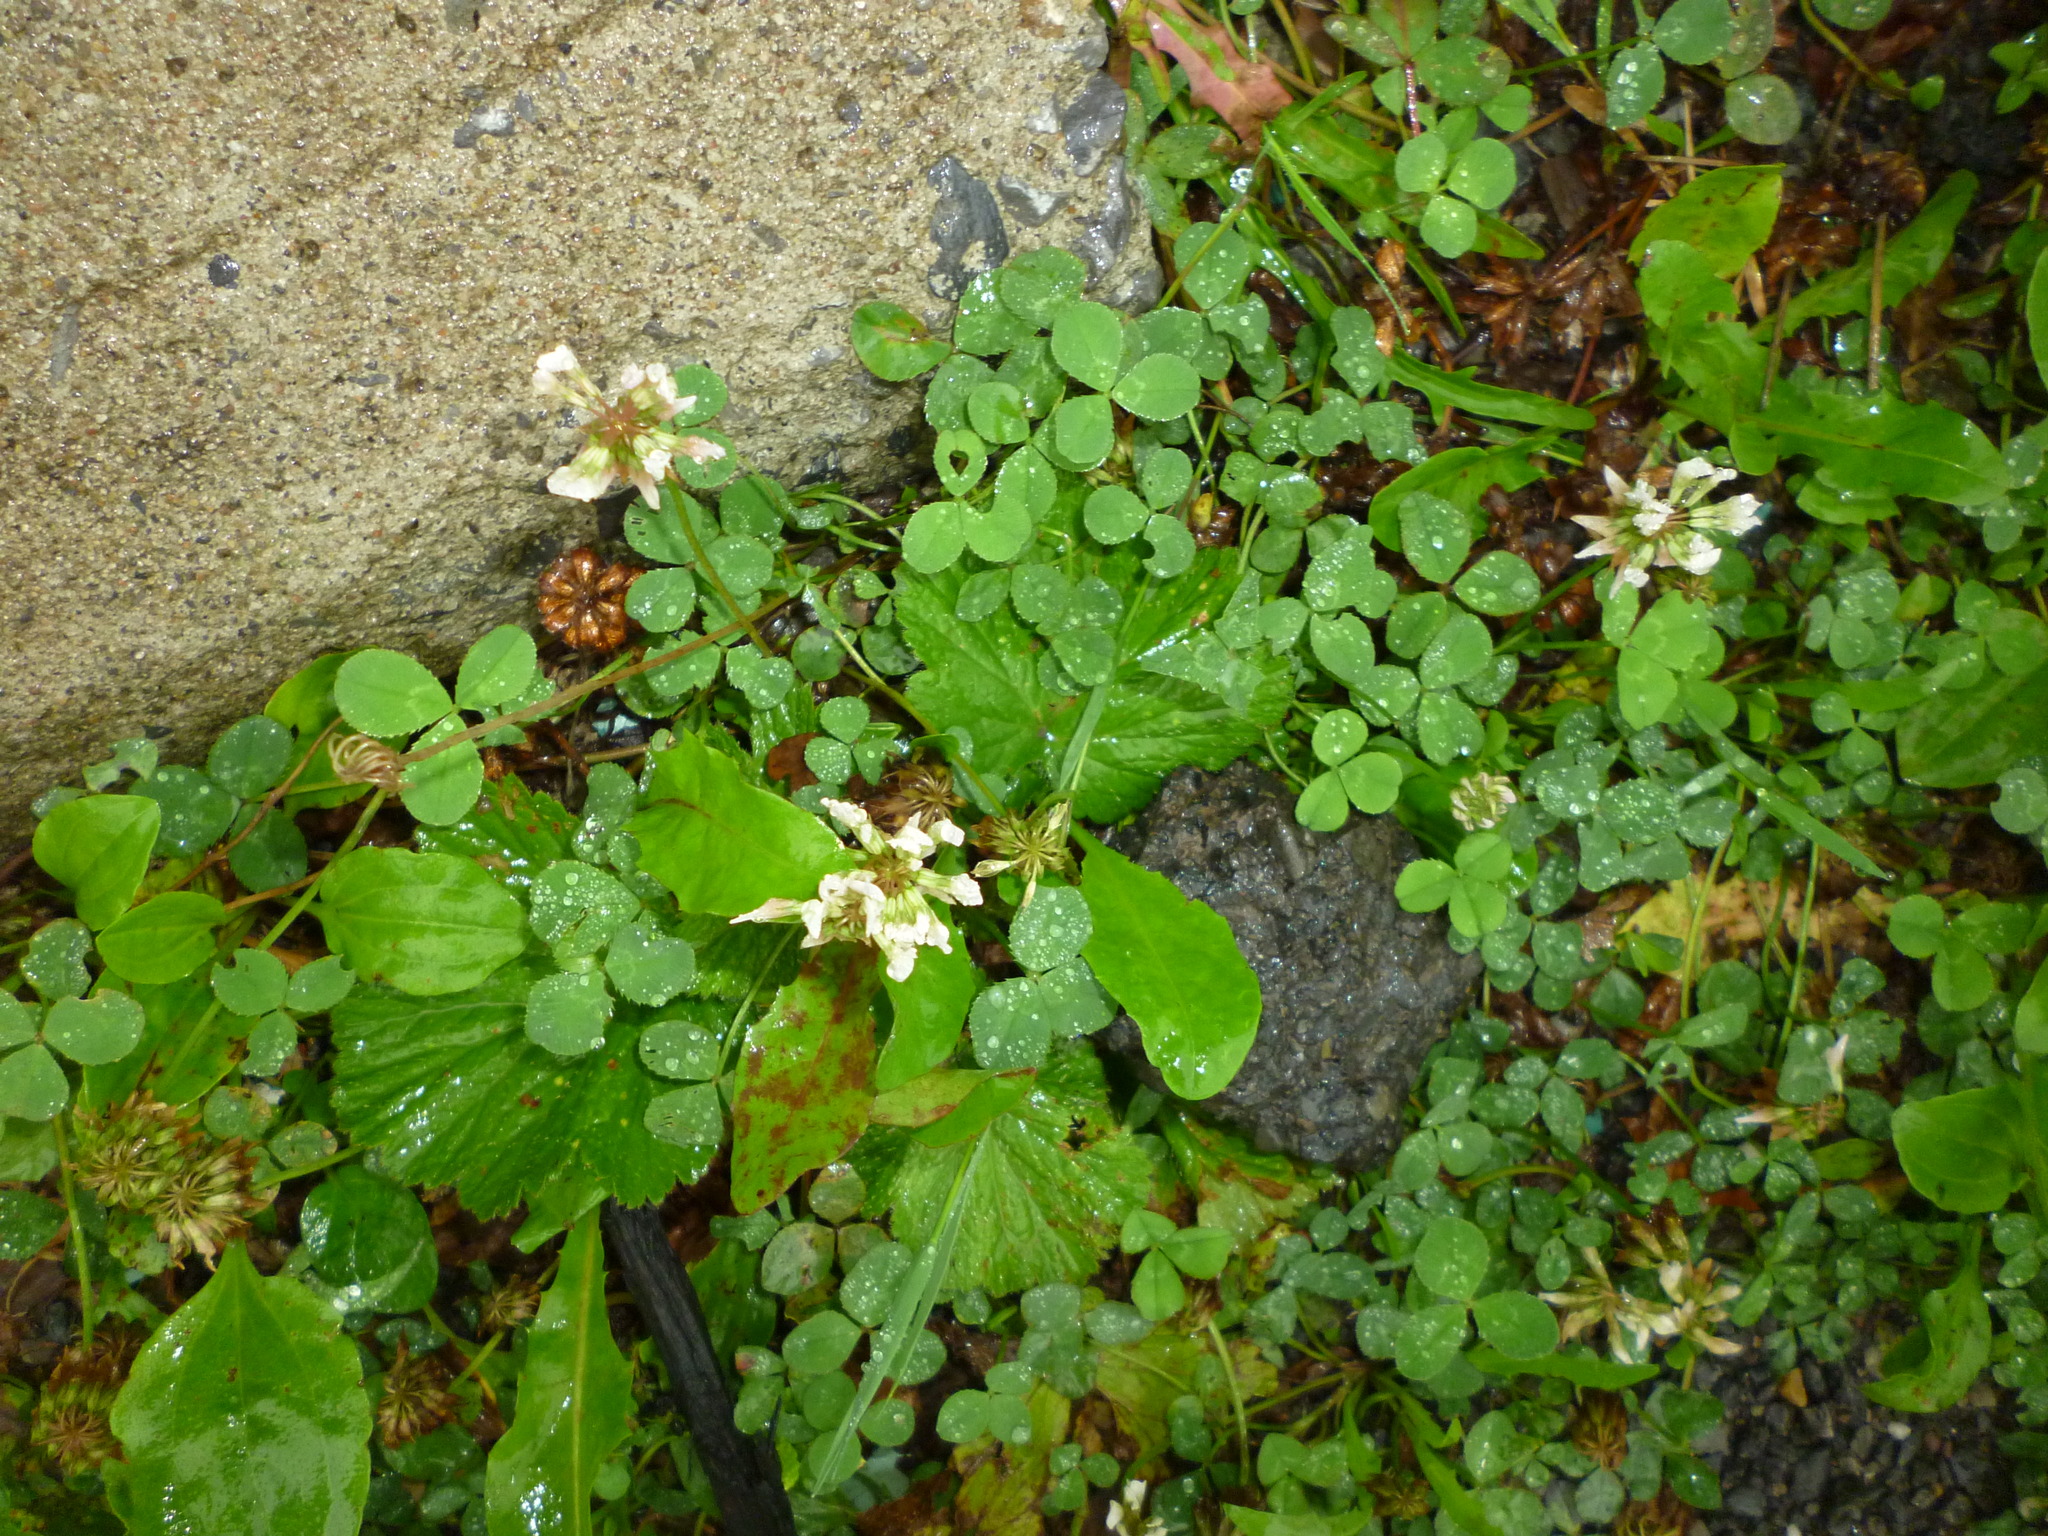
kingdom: Plantae
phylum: Tracheophyta
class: Magnoliopsida
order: Fabales
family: Fabaceae
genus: Trifolium
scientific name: Trifolium repens
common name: White clover
